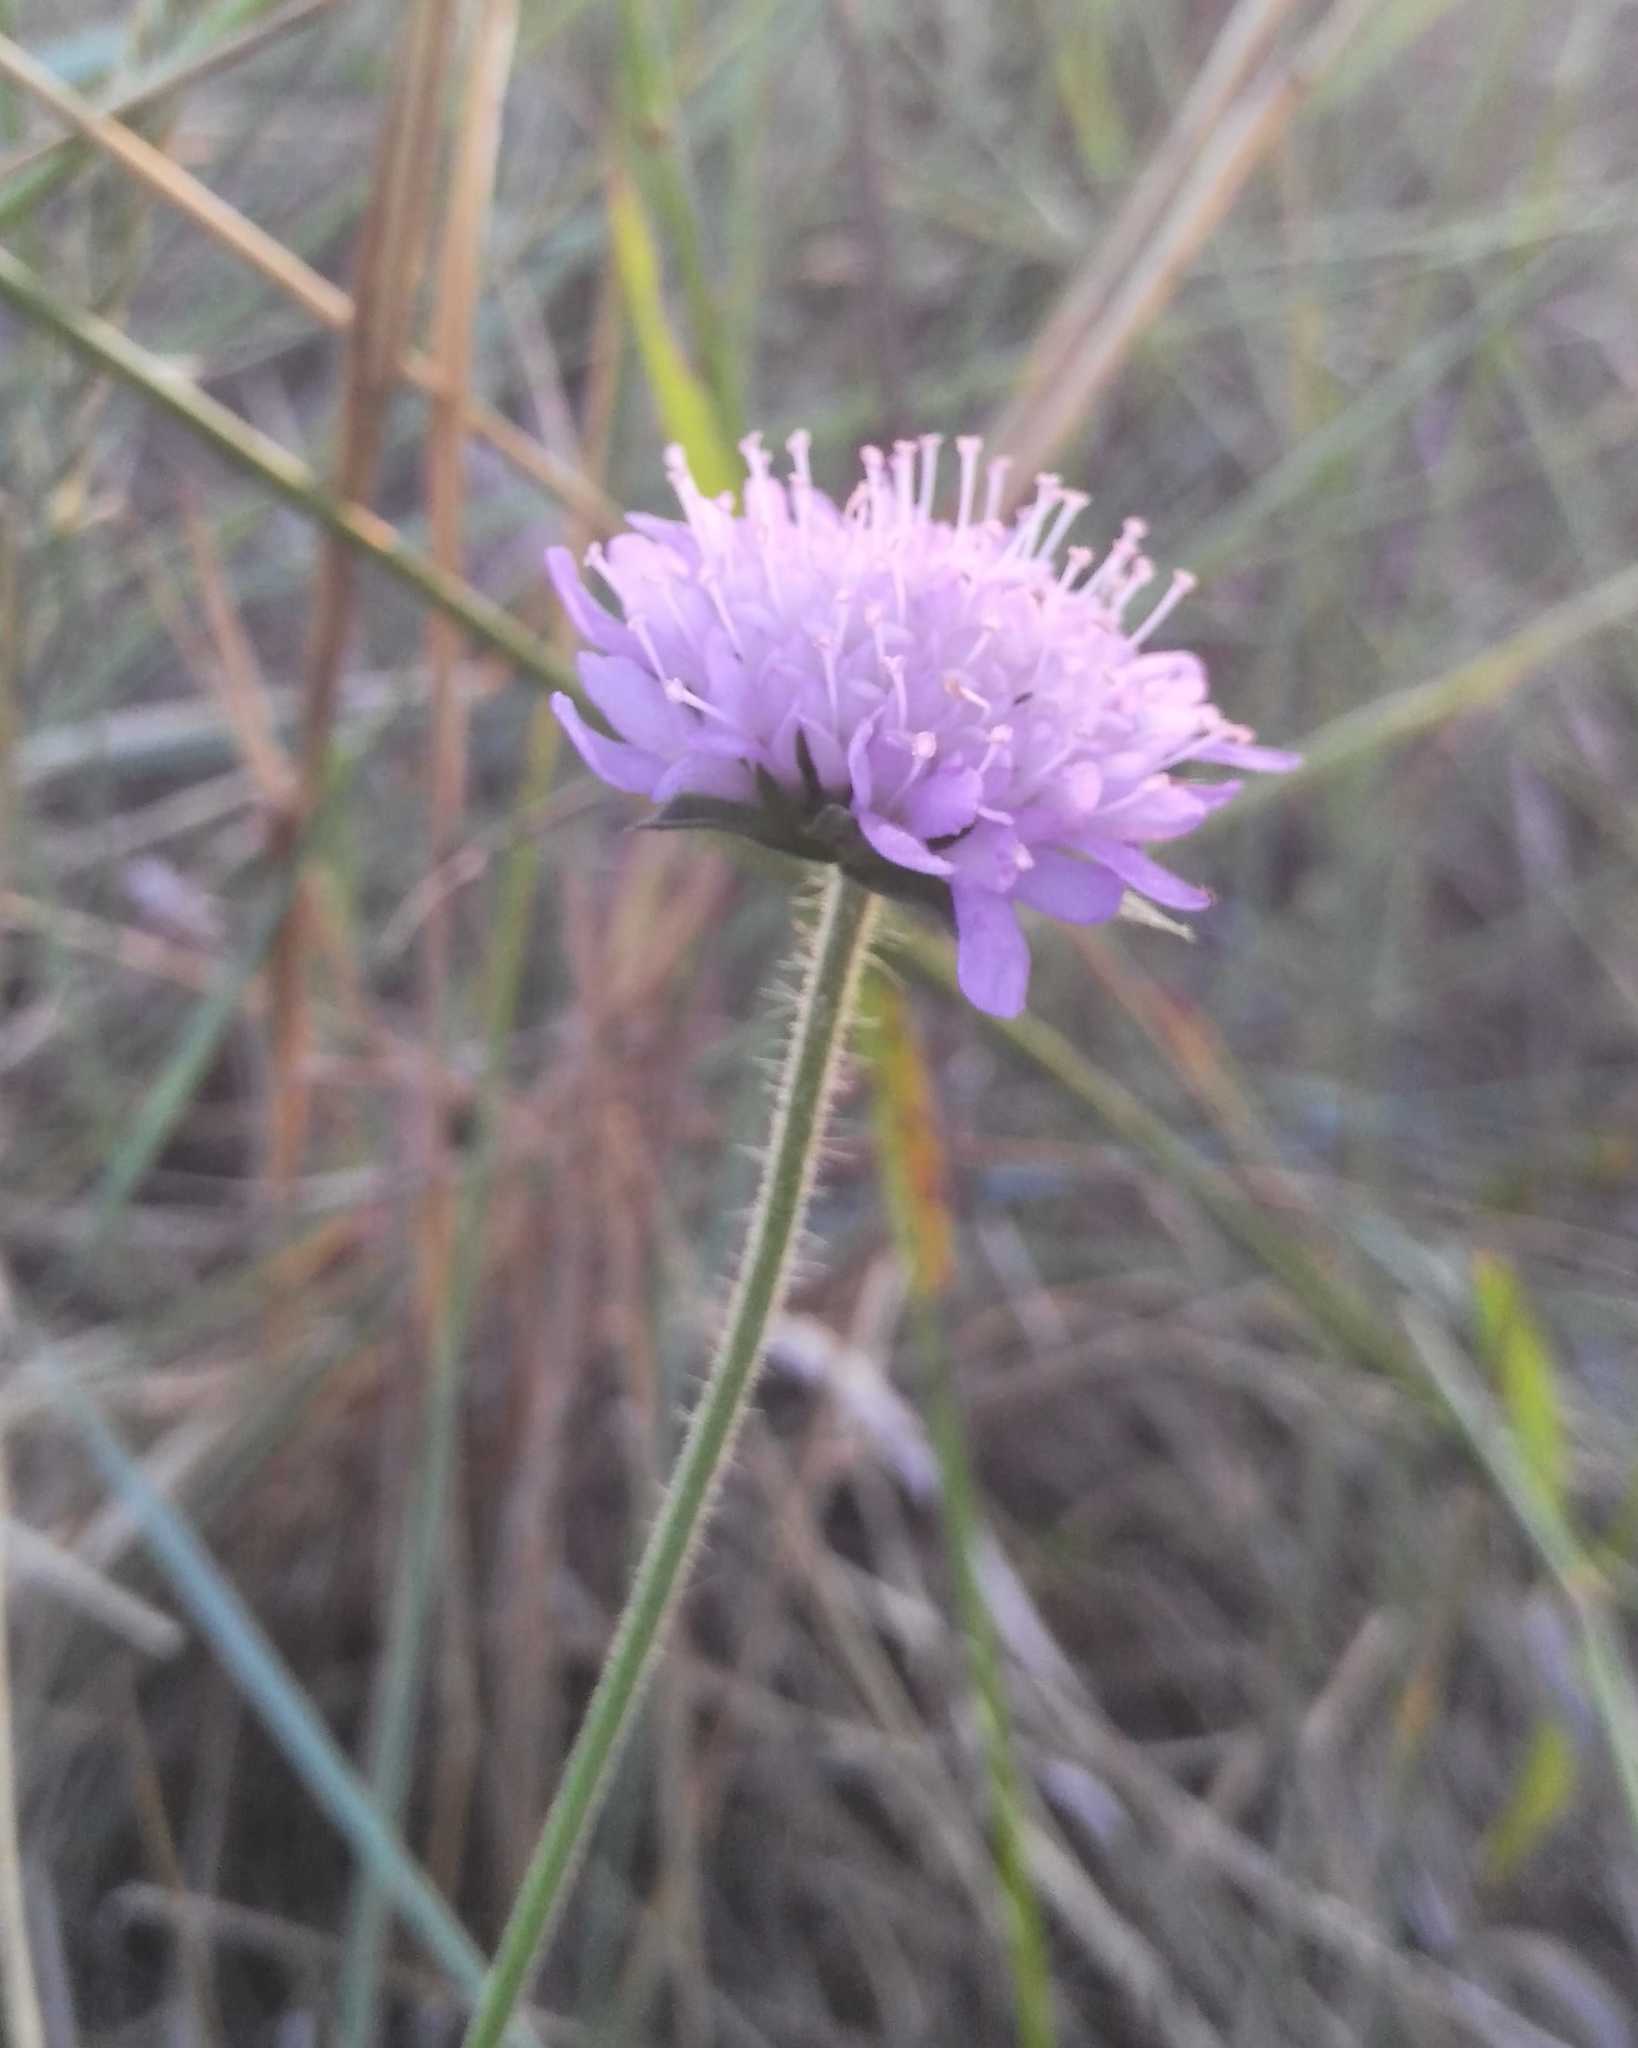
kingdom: Plantae
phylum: Tracheophyta
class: Magnoliopsida
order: Dipsacales
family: Caprifoliaceae
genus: Knautia
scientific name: Knautia arvensis
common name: Field scabiosa
